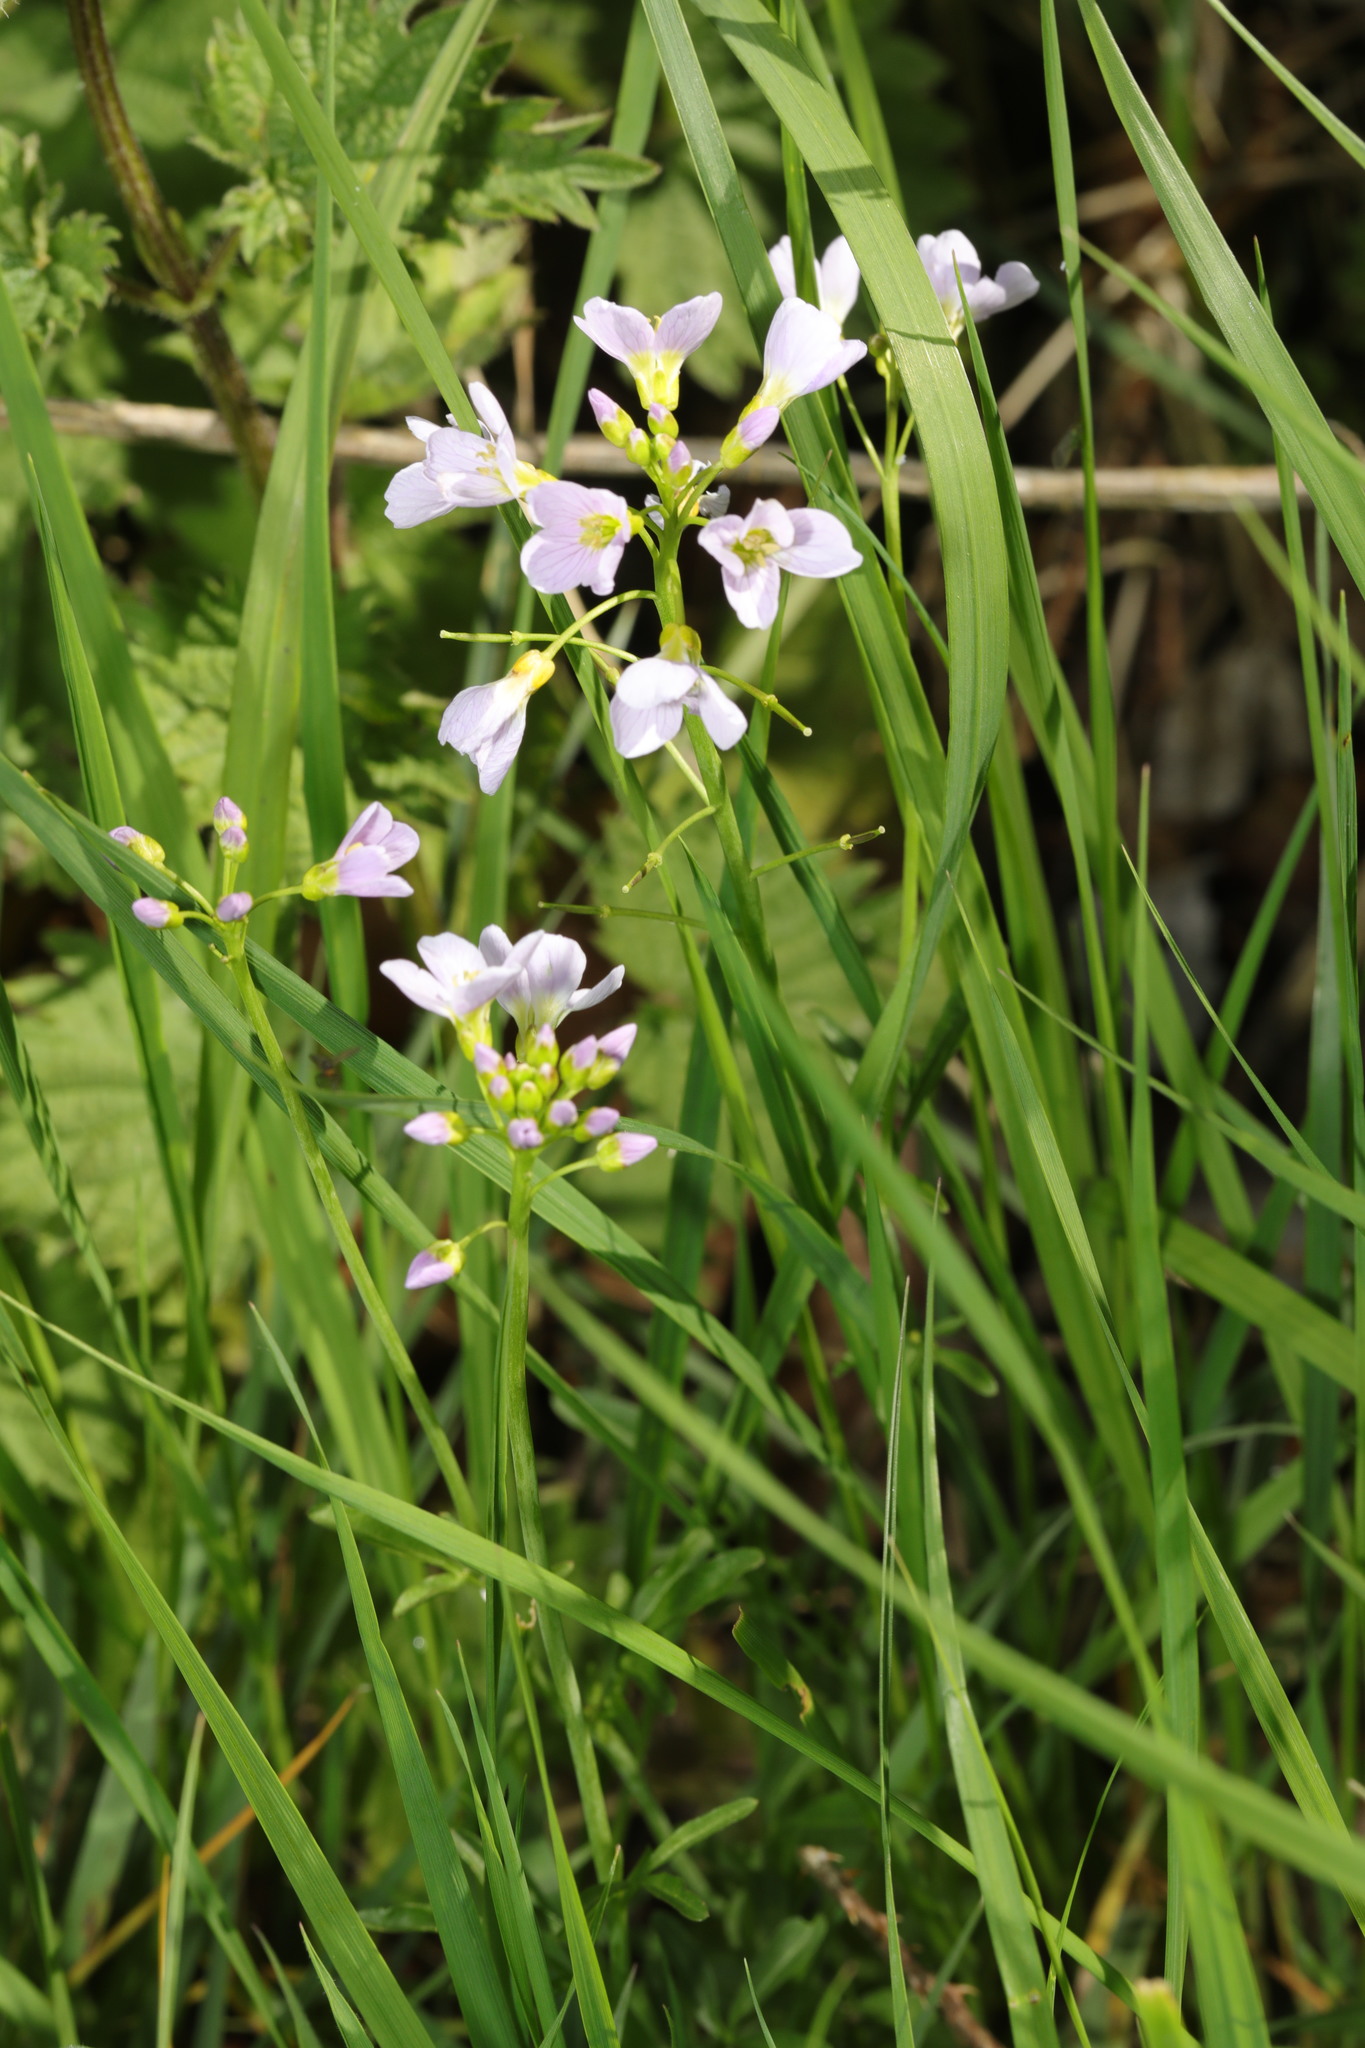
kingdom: Plantae
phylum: Tracheophyta
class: Magnoliopsida
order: Brassicales
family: Brassicaceae
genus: Cardamine
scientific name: Cardamine pratensis
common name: Cuckoo flower
